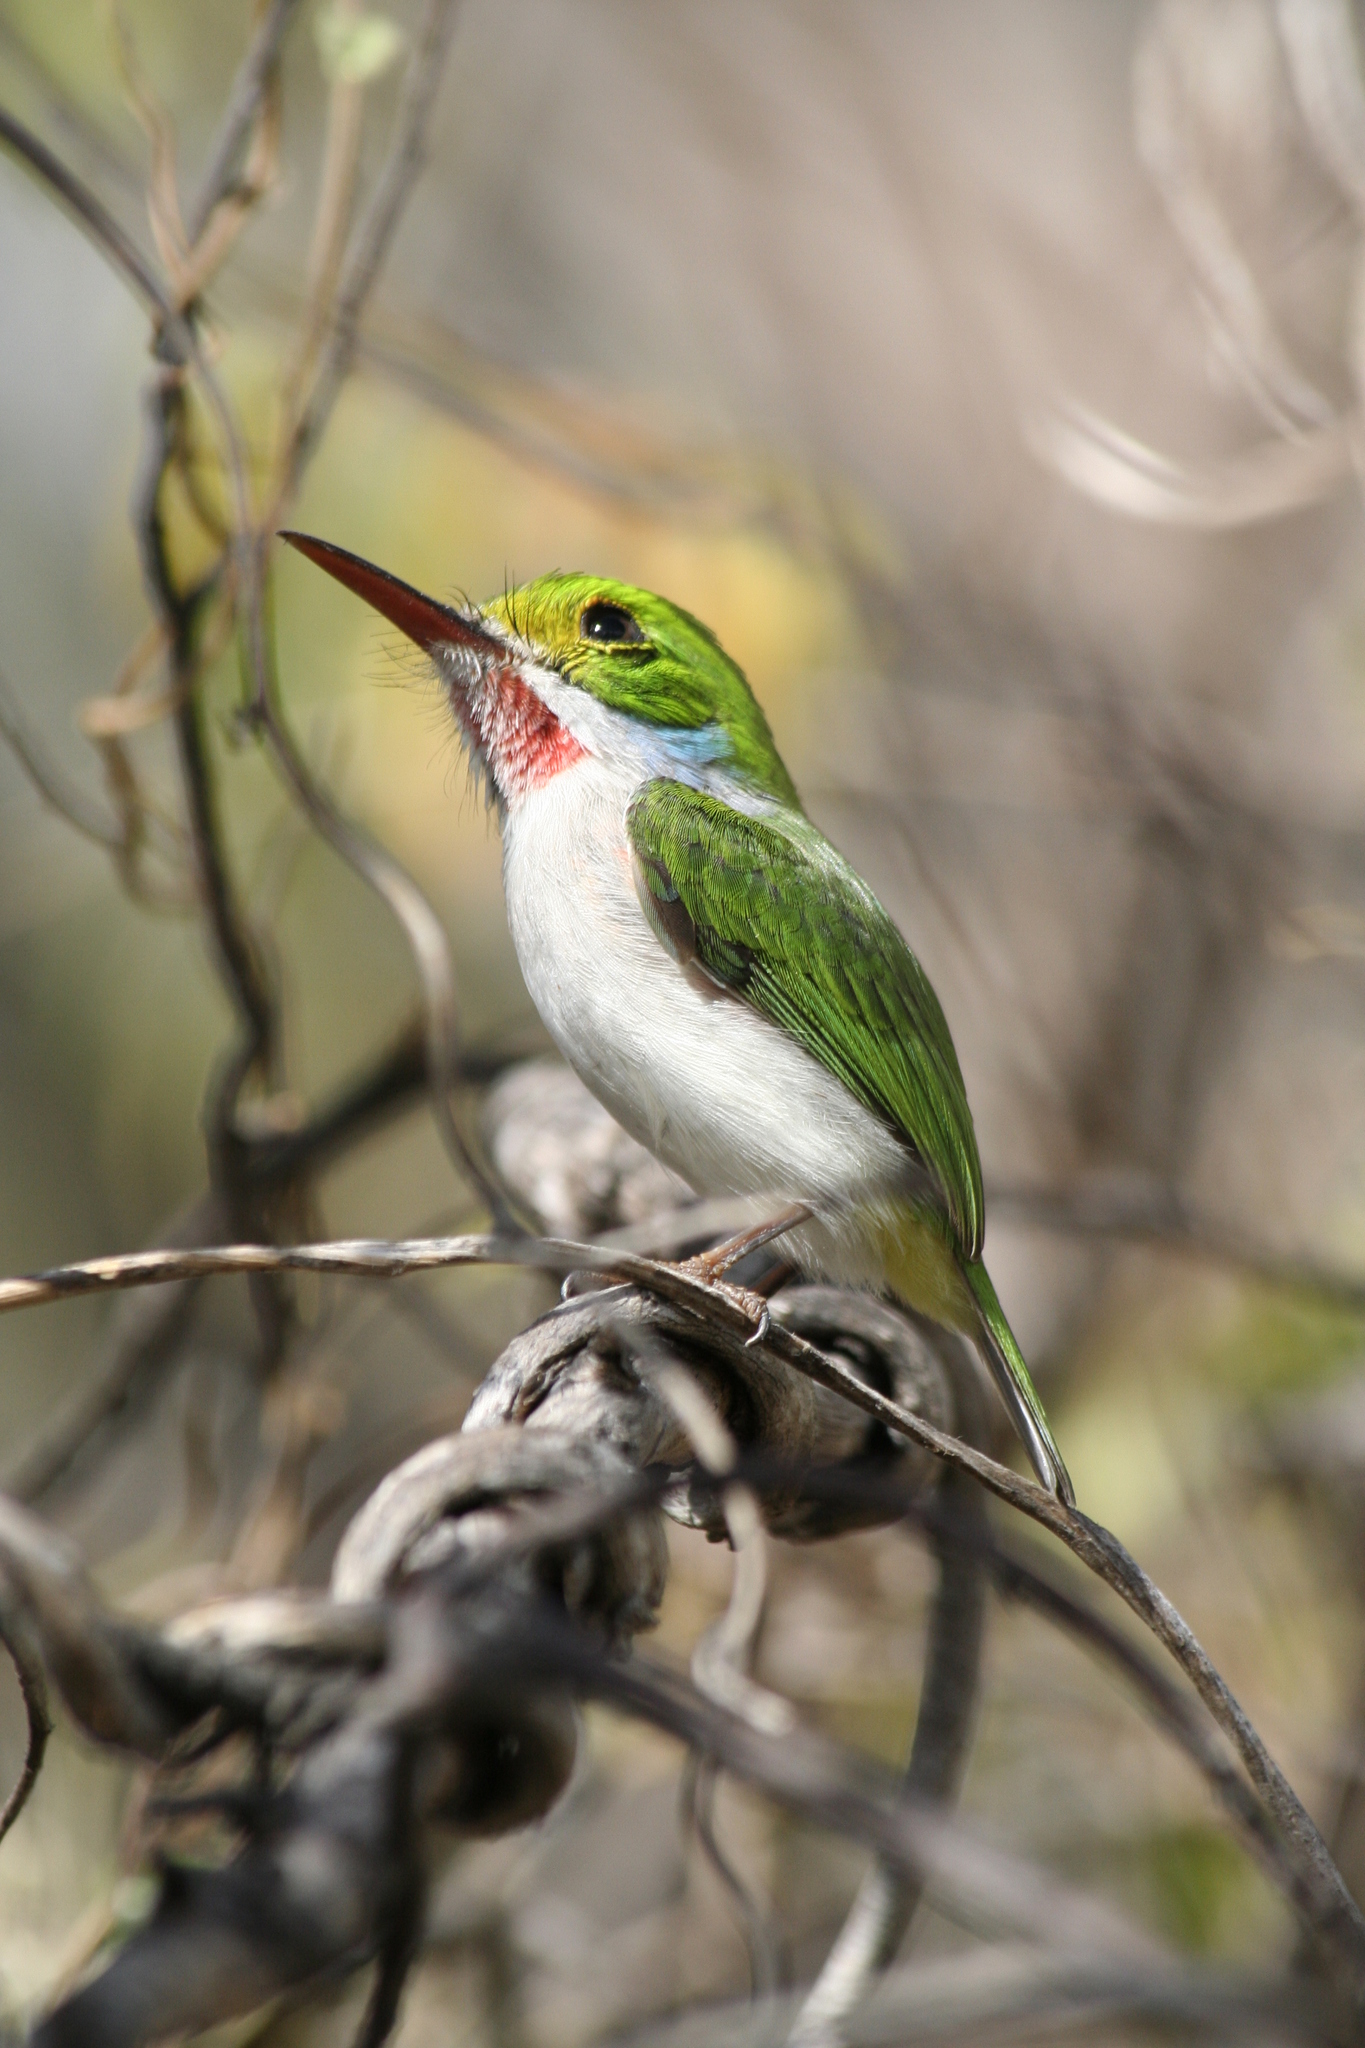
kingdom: Animalia
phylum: Chordata
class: Aves
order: Coraciiformes
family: Todidae
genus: Todus
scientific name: Todus multicolor
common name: Cuban tody
